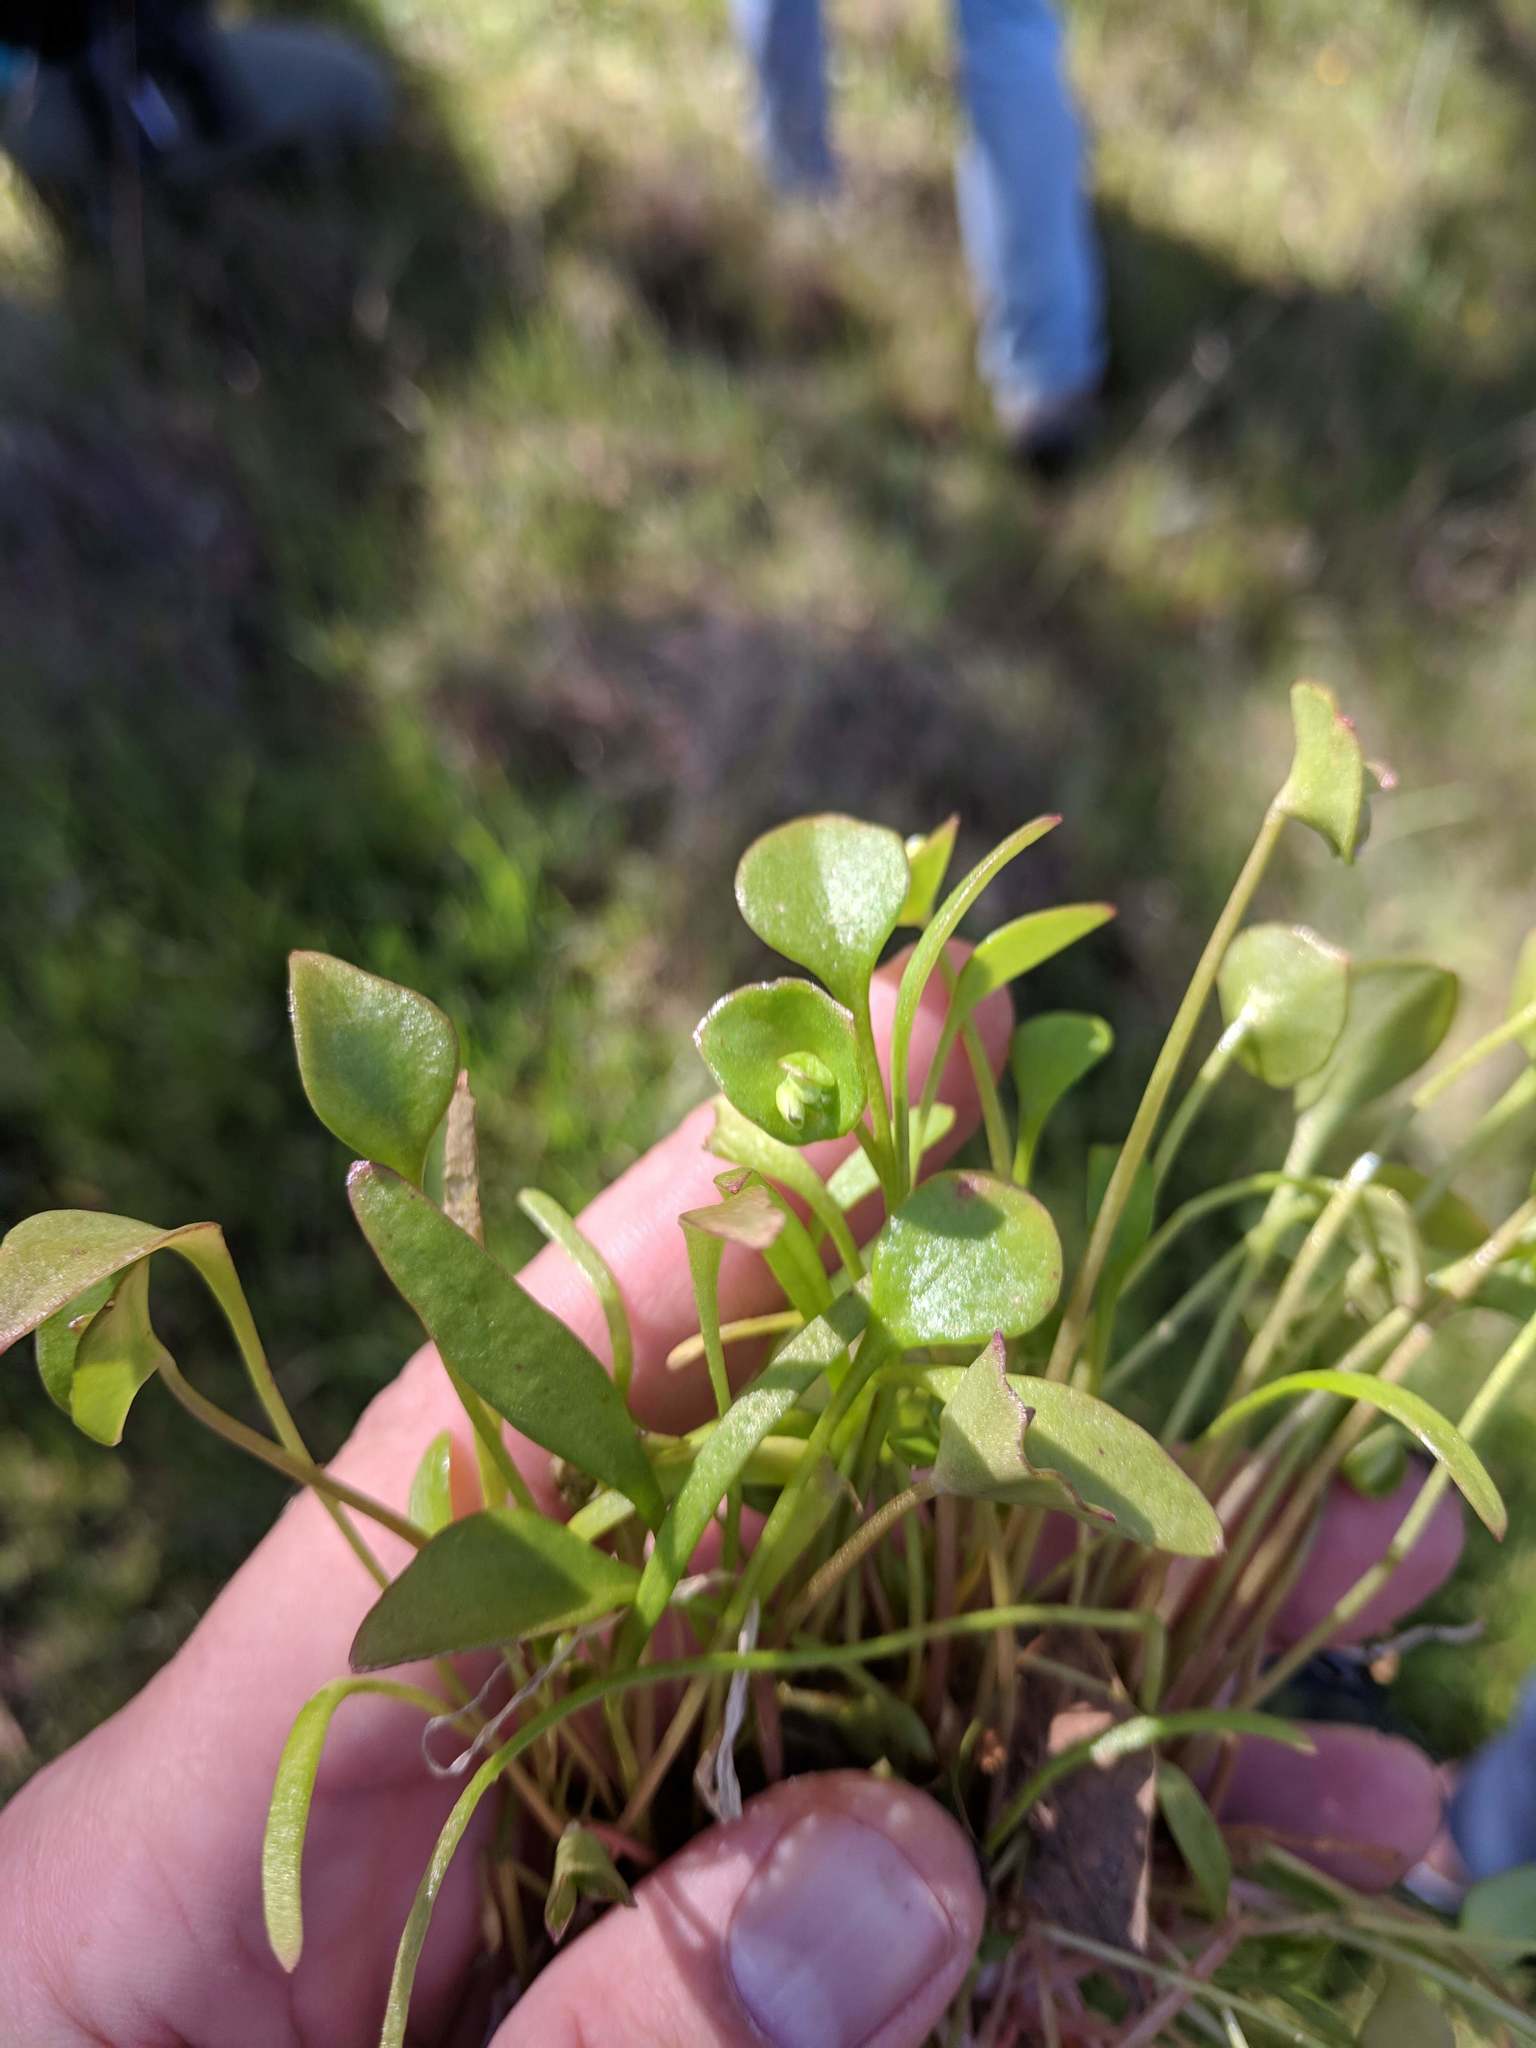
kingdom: Plantae
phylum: Tracheophyta
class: Magnoliopsida
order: Caryophyllales
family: Montiaceae
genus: Claytonia
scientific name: Claytonia perfoliata
